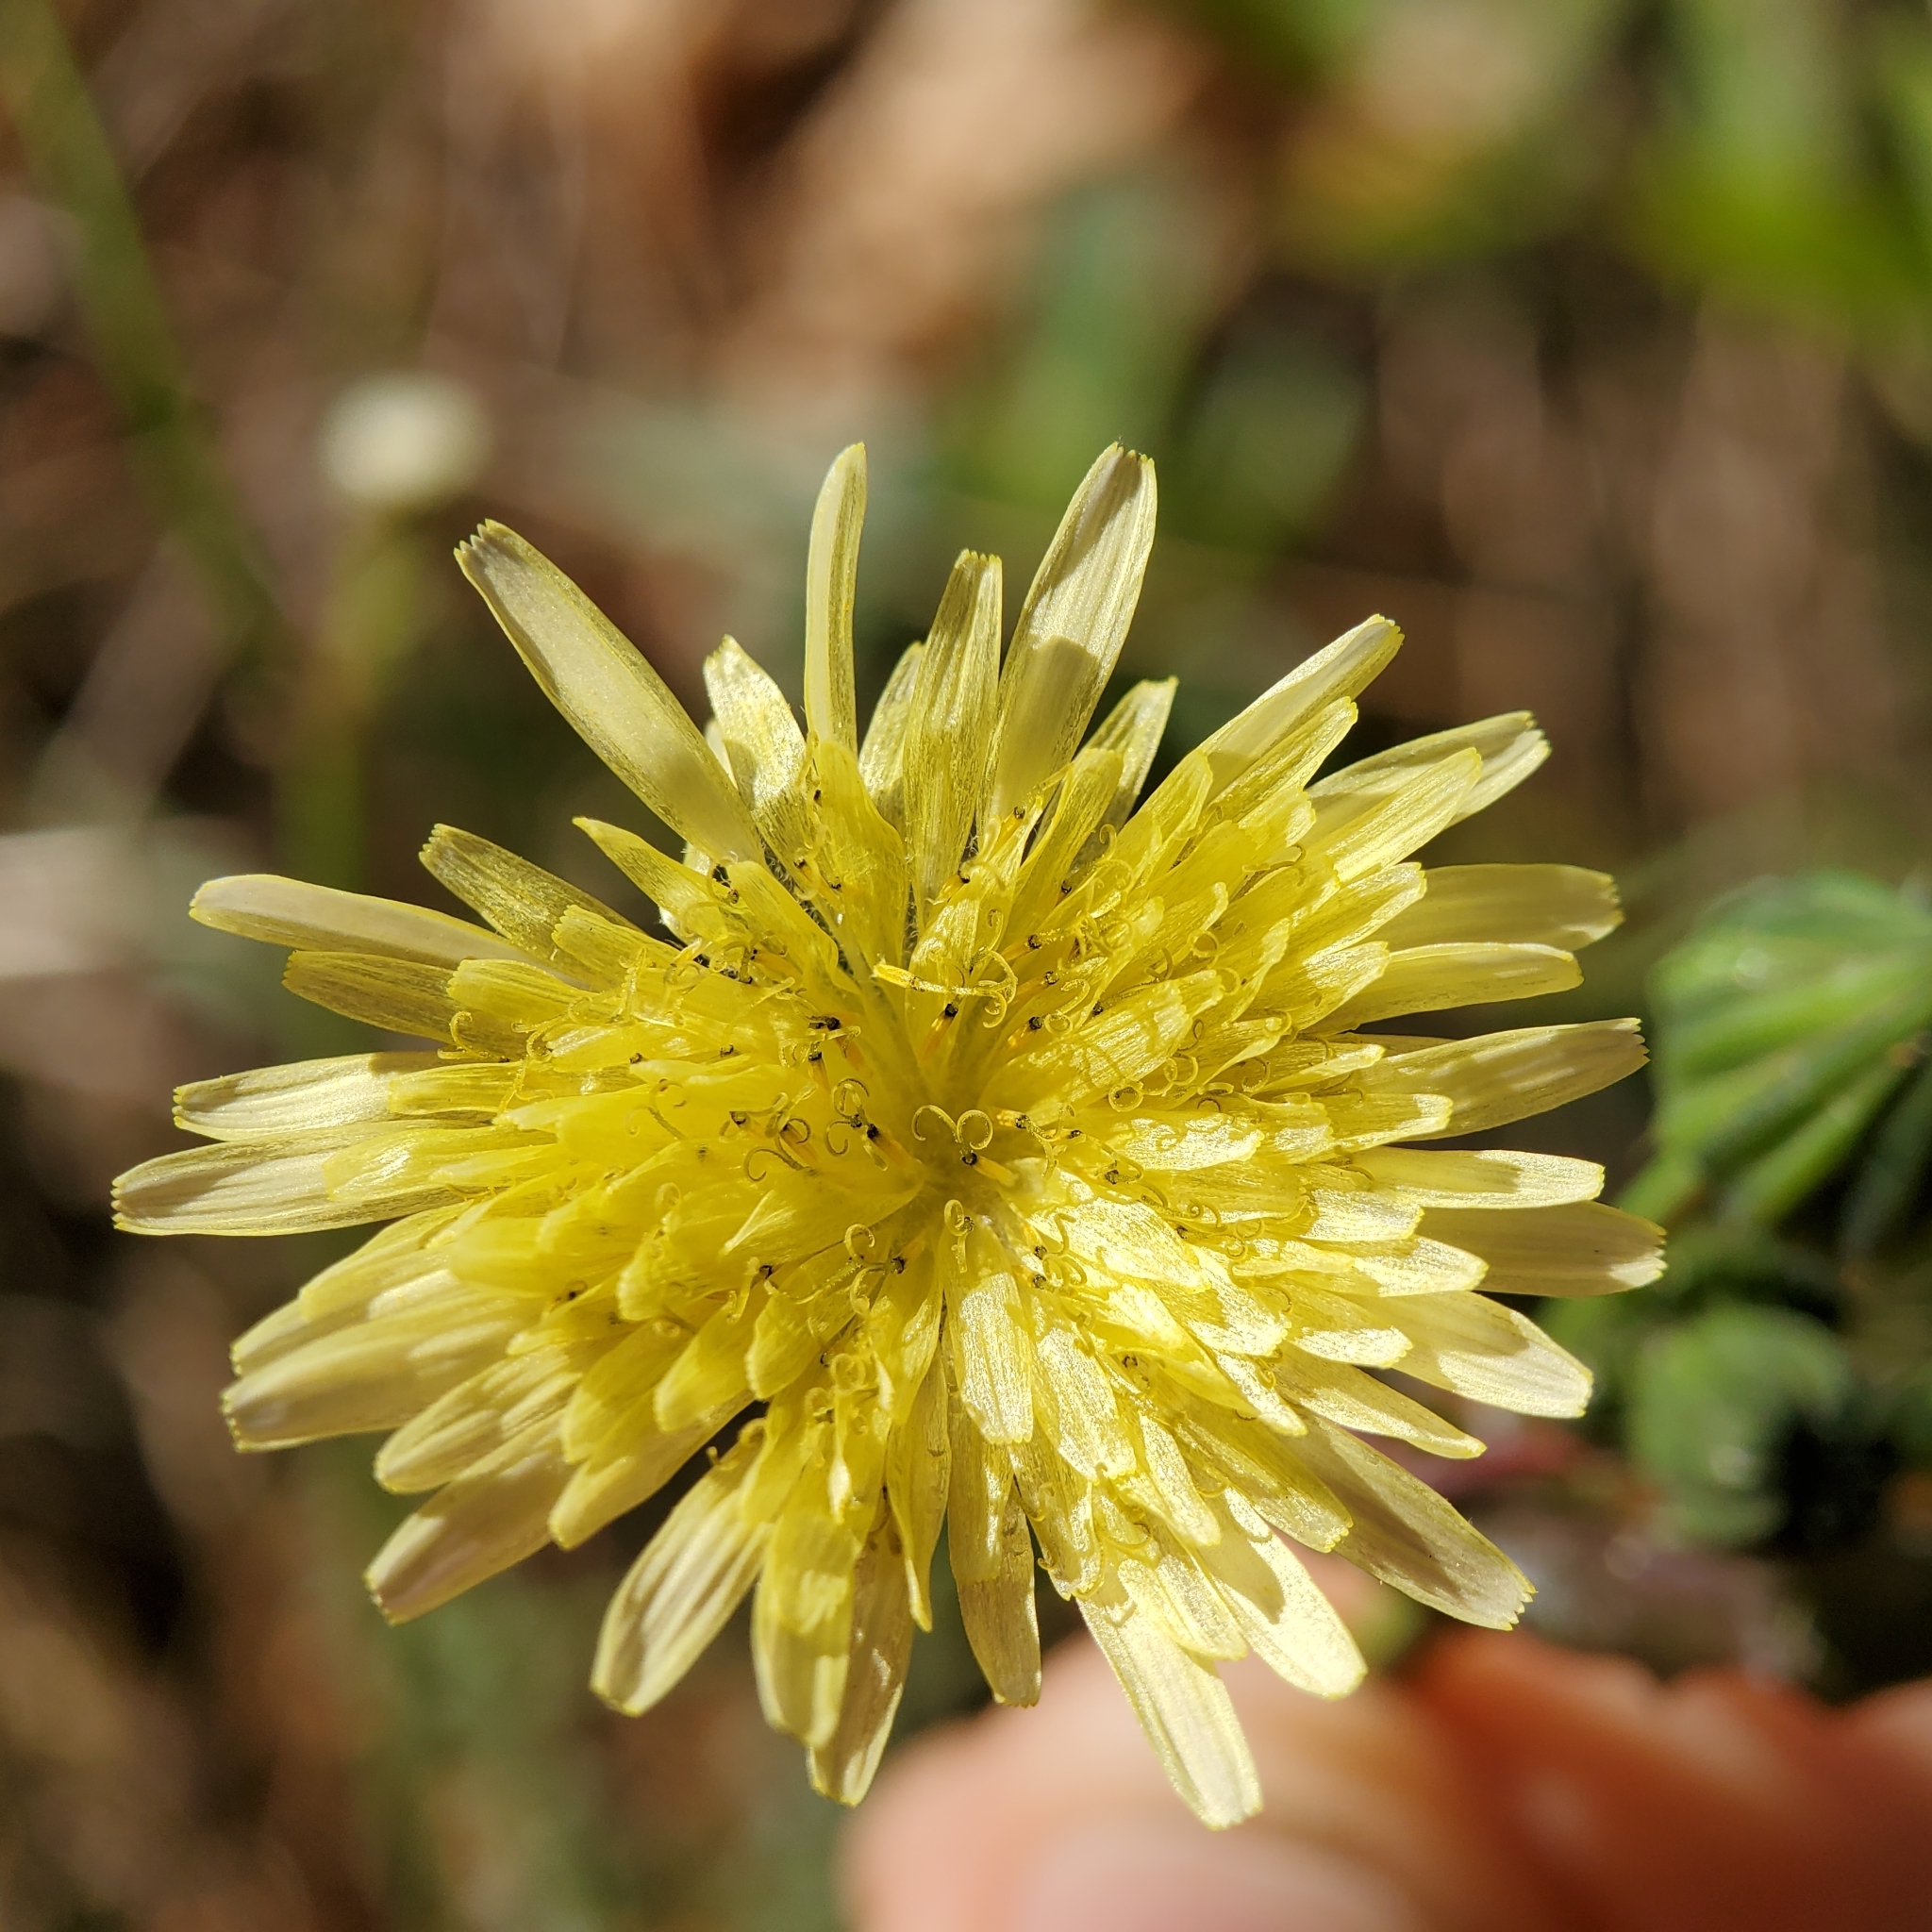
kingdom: Plantae
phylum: Tracheophyta
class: Magnoliopsida
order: Asterales
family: Asteraceae
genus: Sonchus
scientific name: Sonchus oleraceus
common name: Common sowthistle
